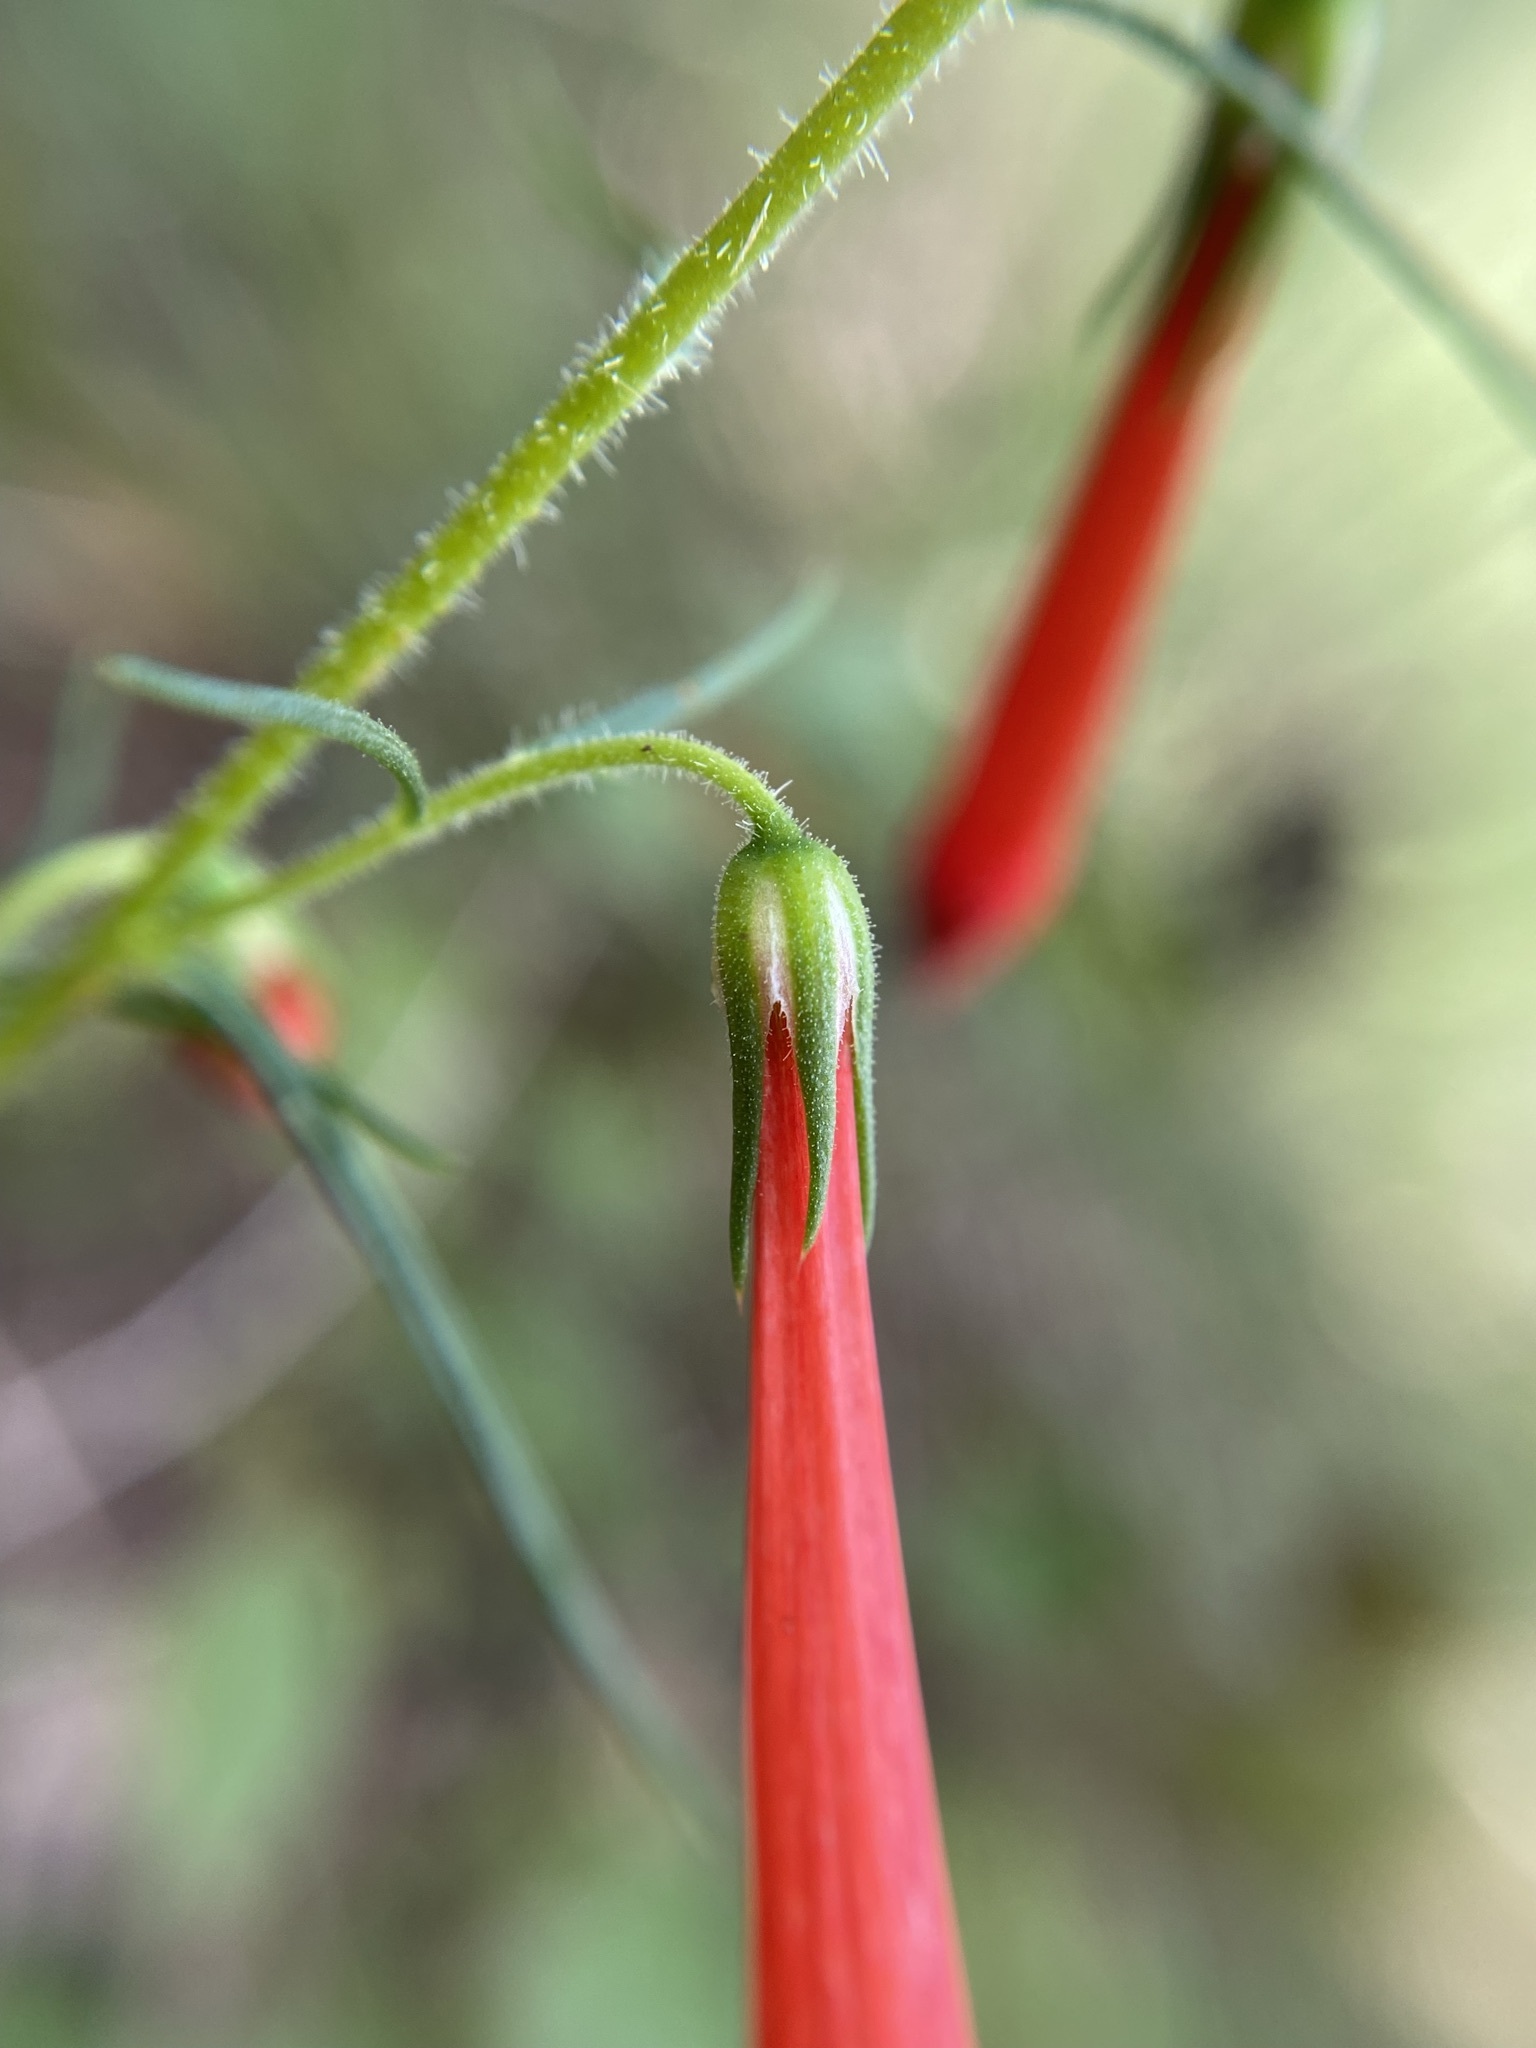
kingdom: Plantae
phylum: Tracheophyta
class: Magnoliopsida
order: Ericales
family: Polemoniaceae
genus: Ipomopsis
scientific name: Ipomopsis rubra
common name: Skyrocket
